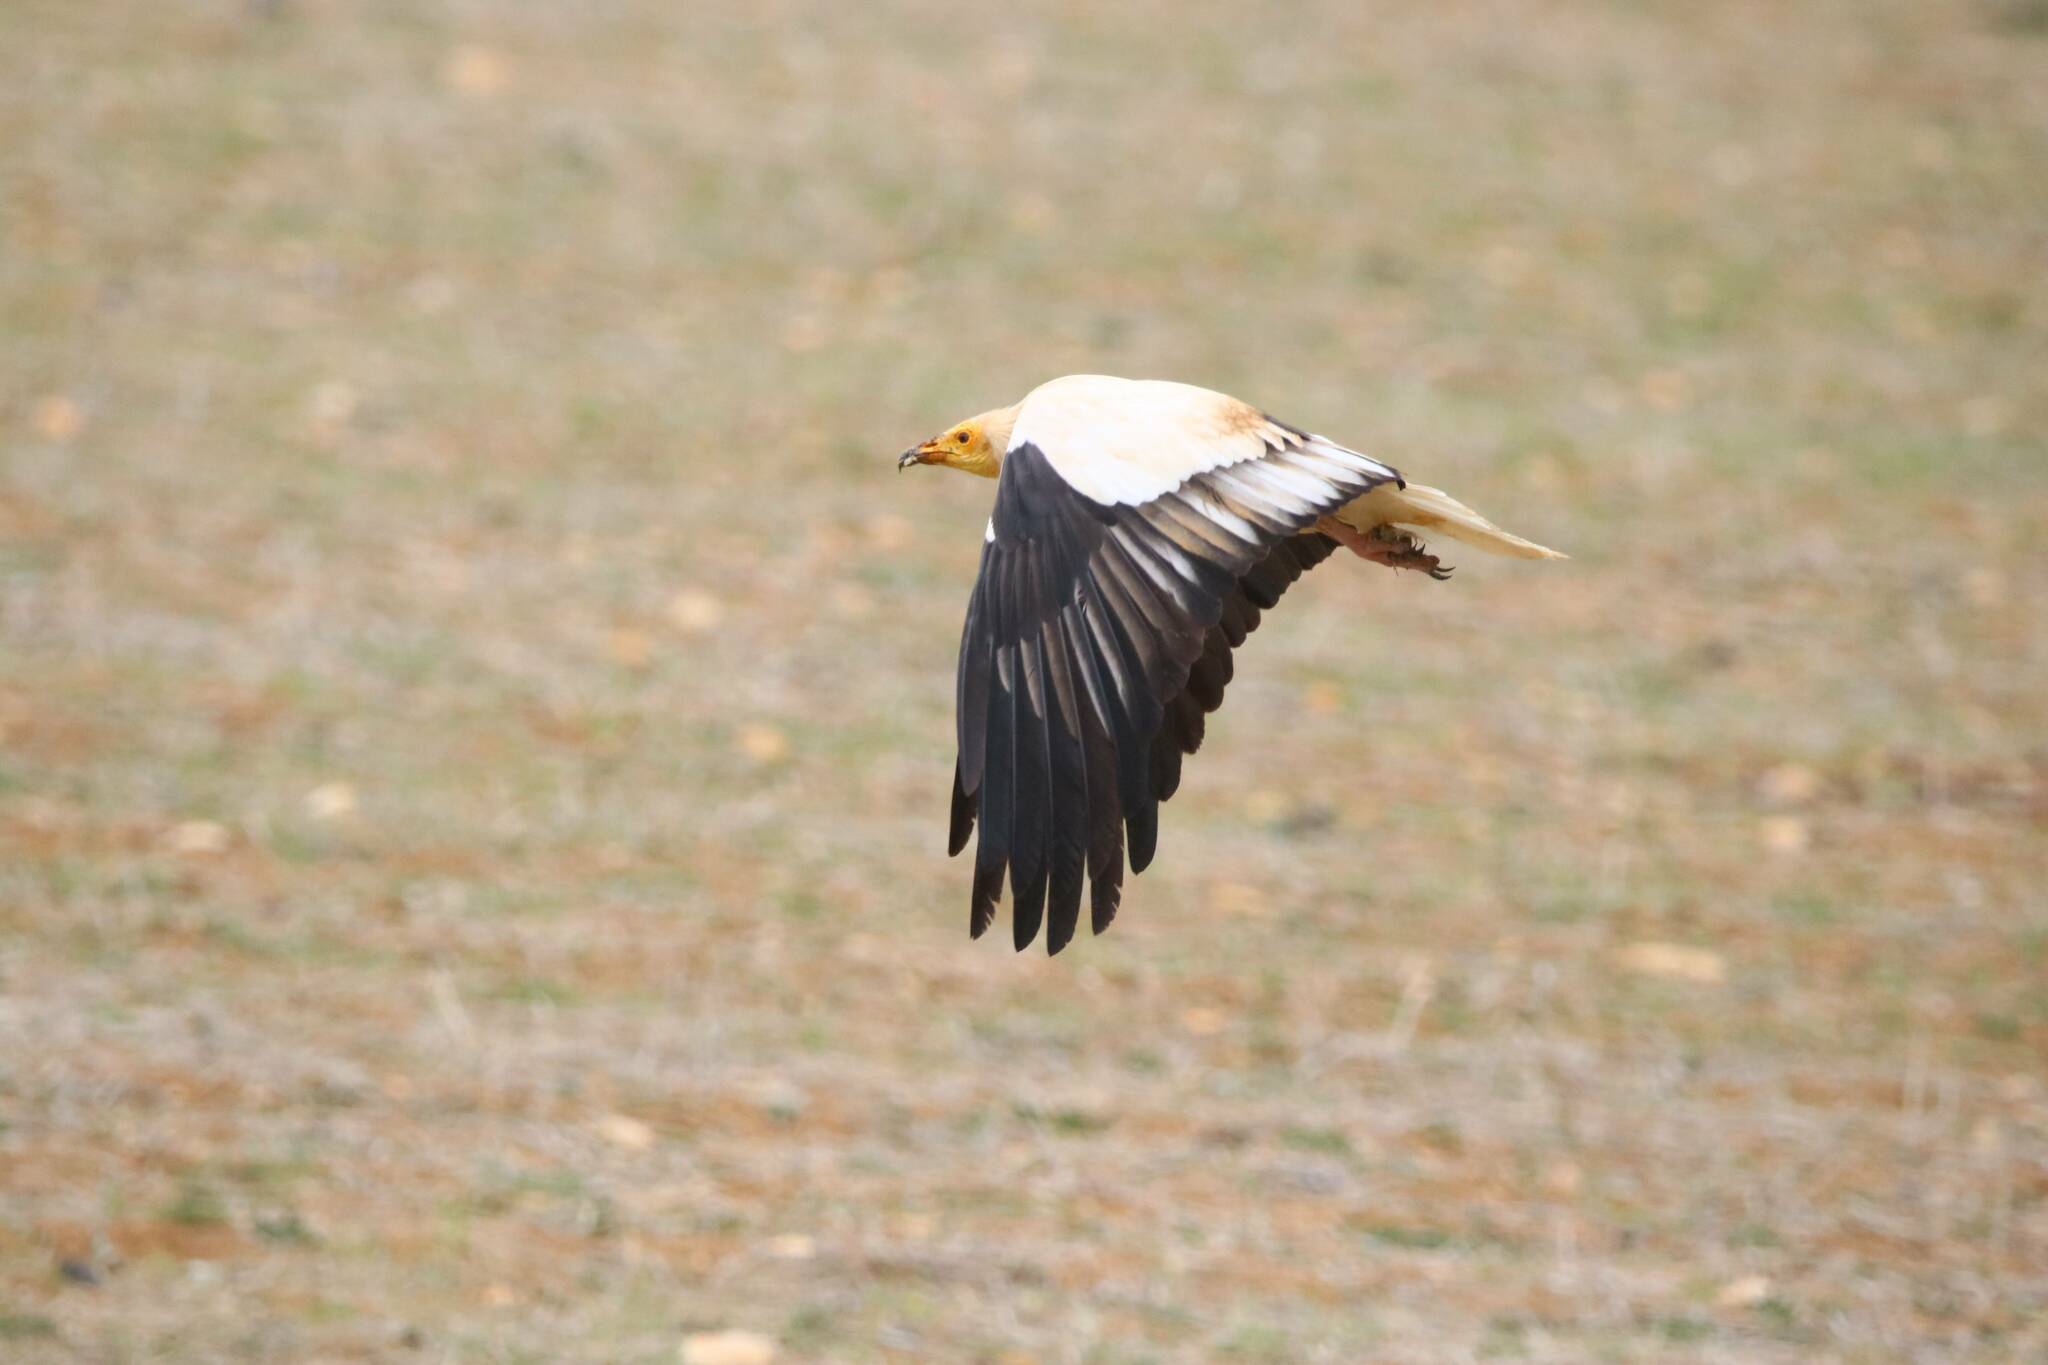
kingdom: Animalia
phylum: Chordata
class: Aves
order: Accipitriformes
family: Accipitridae
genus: Neophron
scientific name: Neophron percnopterus
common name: Egyptian vulture
